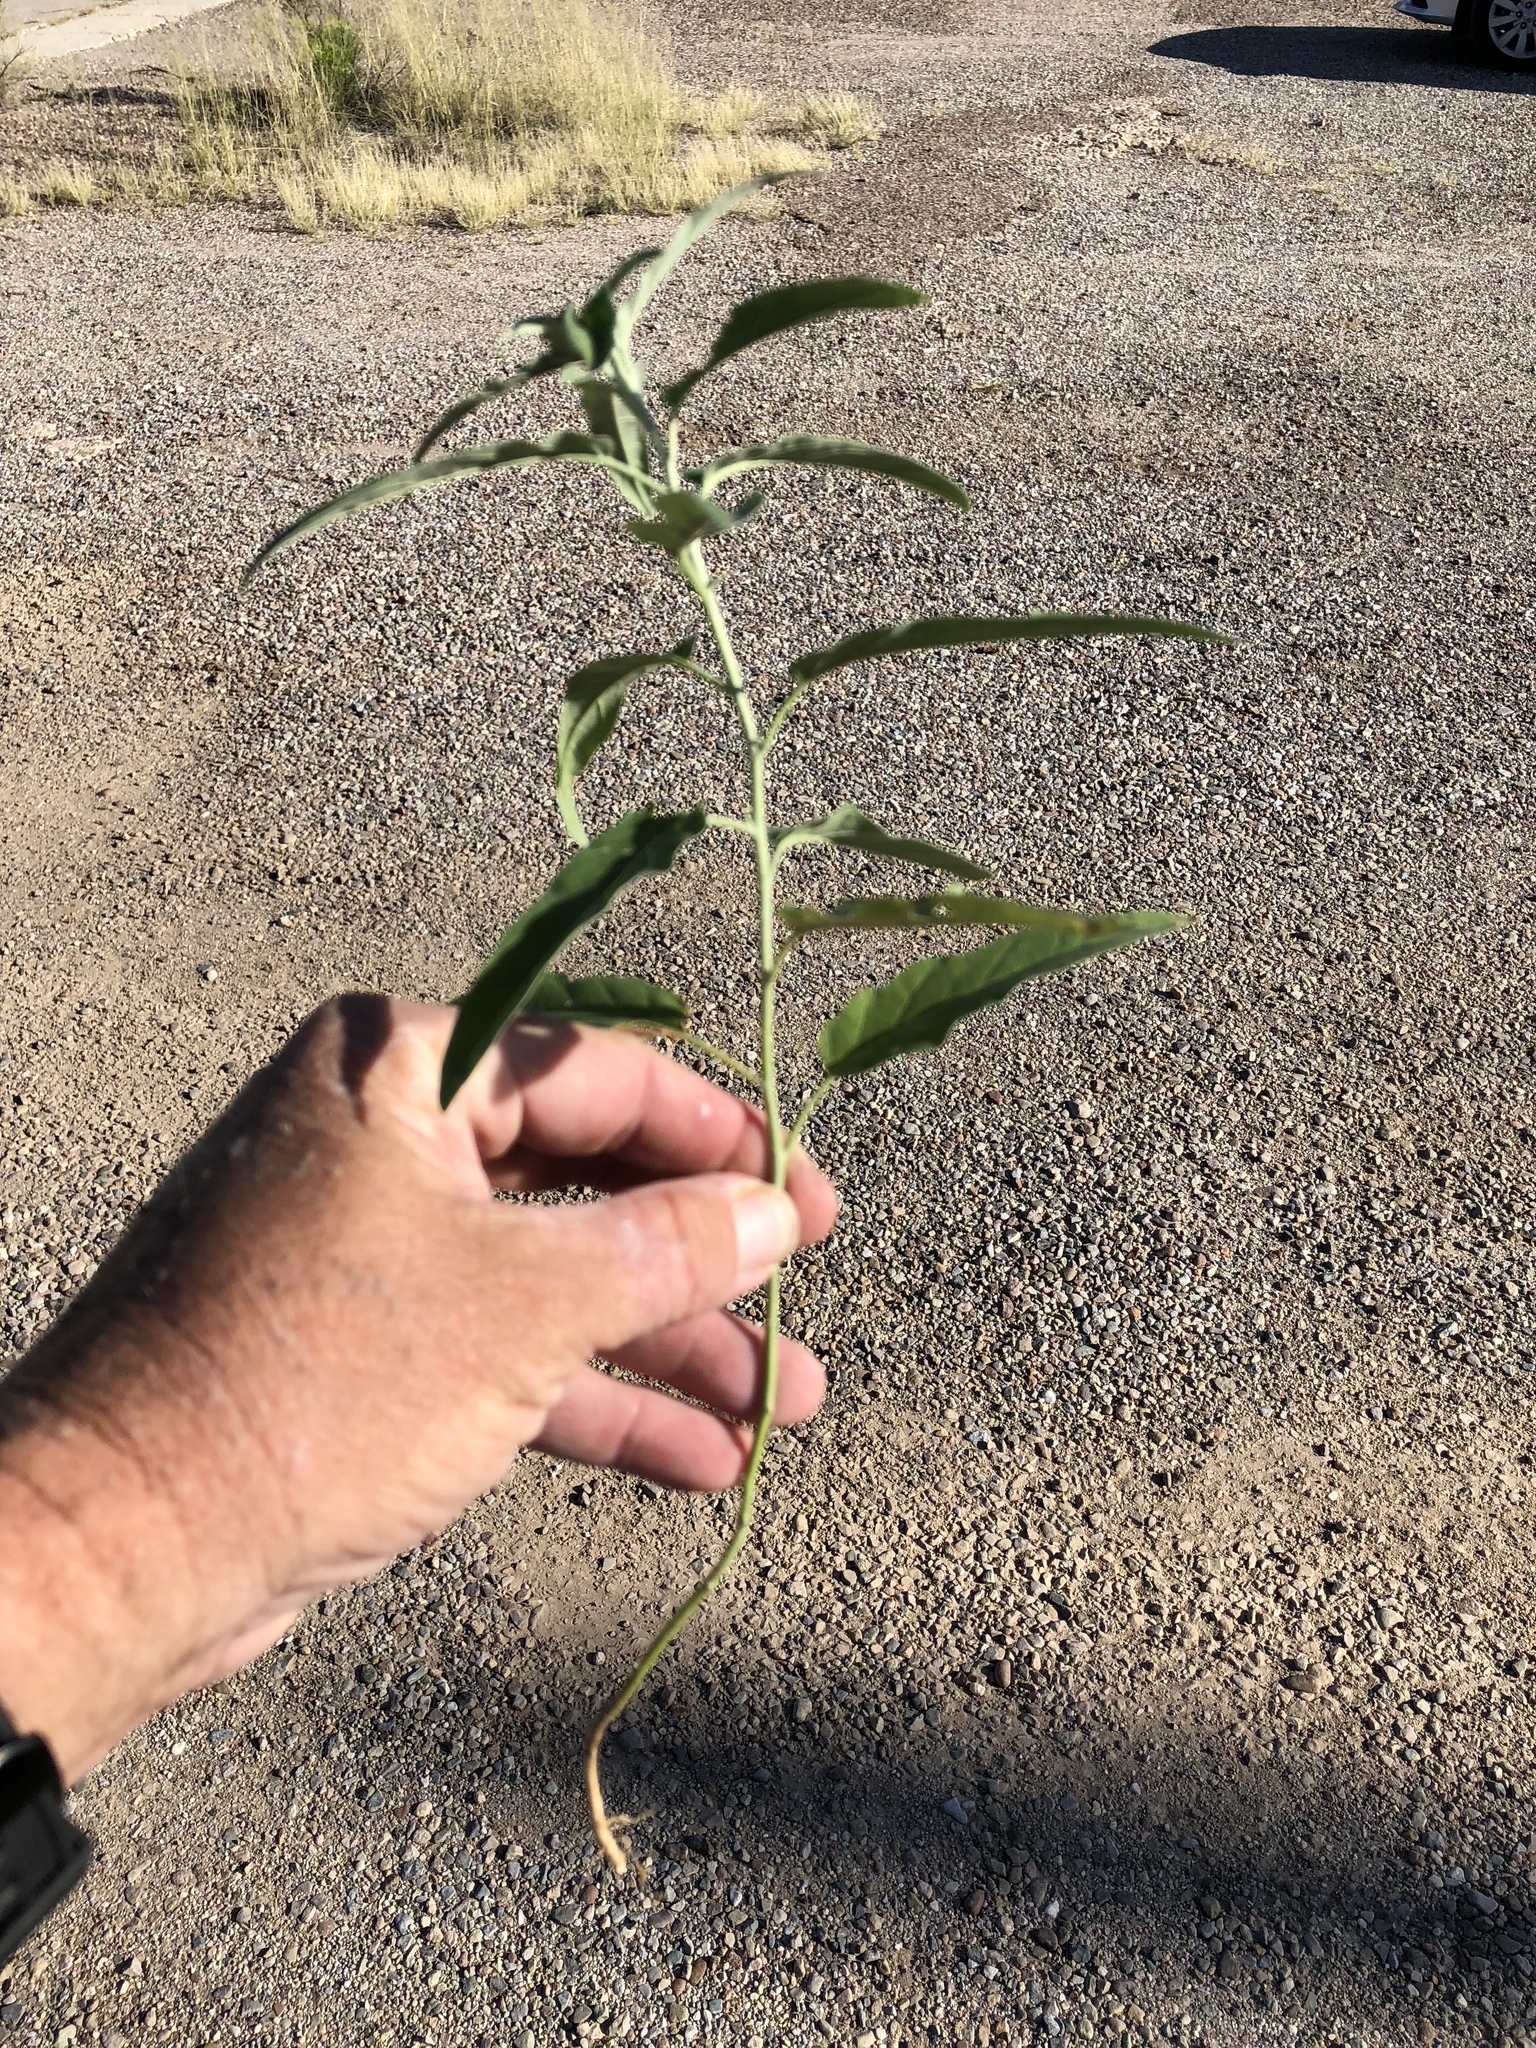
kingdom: Plantae
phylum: Tracheophyta
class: Magnoliopsida
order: Solanales
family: Solanaceae
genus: Solanum
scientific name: Solanum elaeagnifolium
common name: Silverleaf nightshade
